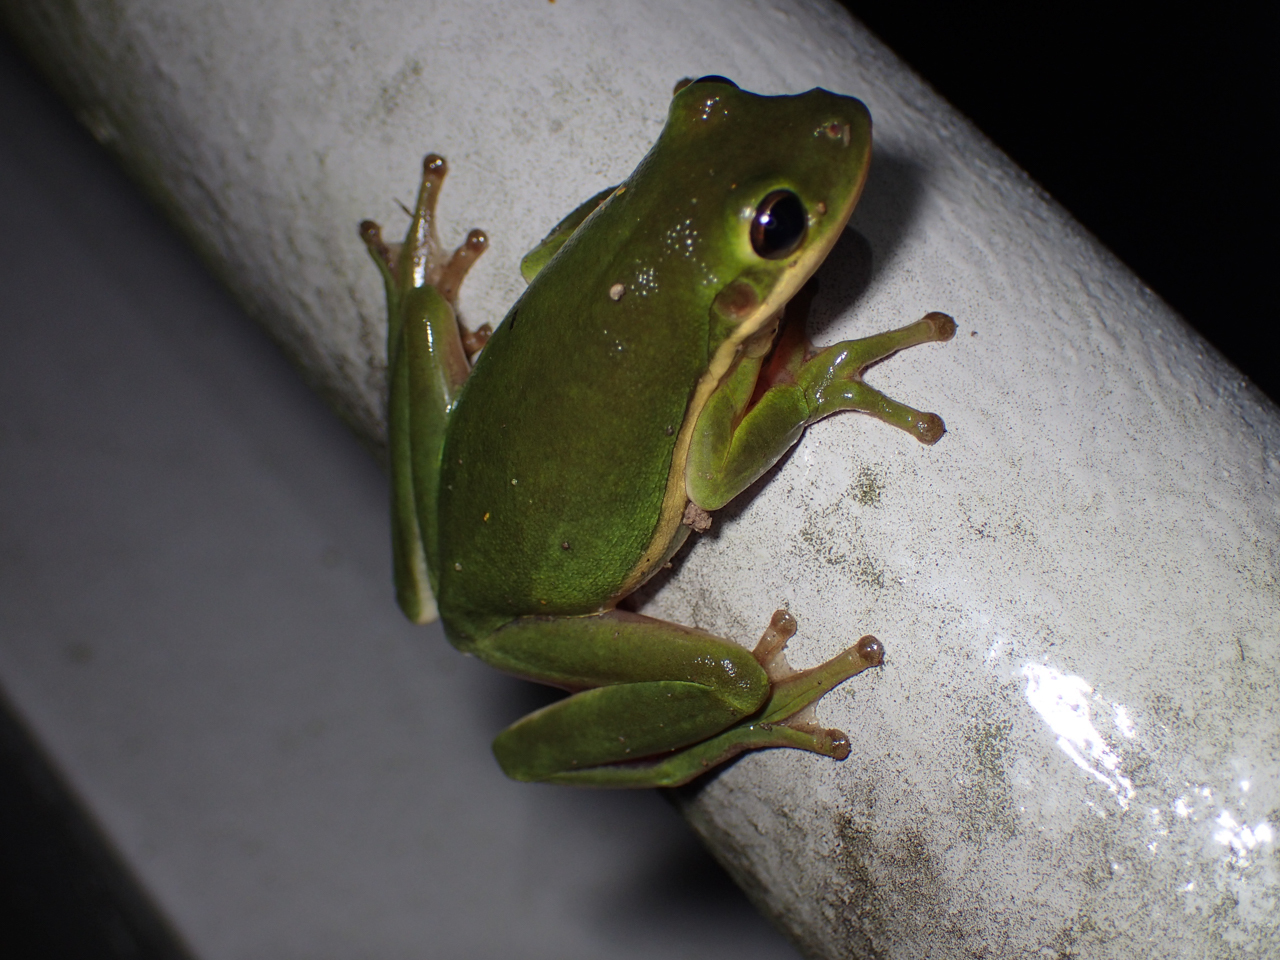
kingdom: Animalia
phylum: Chordata
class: Amphibia
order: Anura
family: Hylidae
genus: Dryophytes
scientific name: Dryophytes cinereus
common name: Green treefrog
